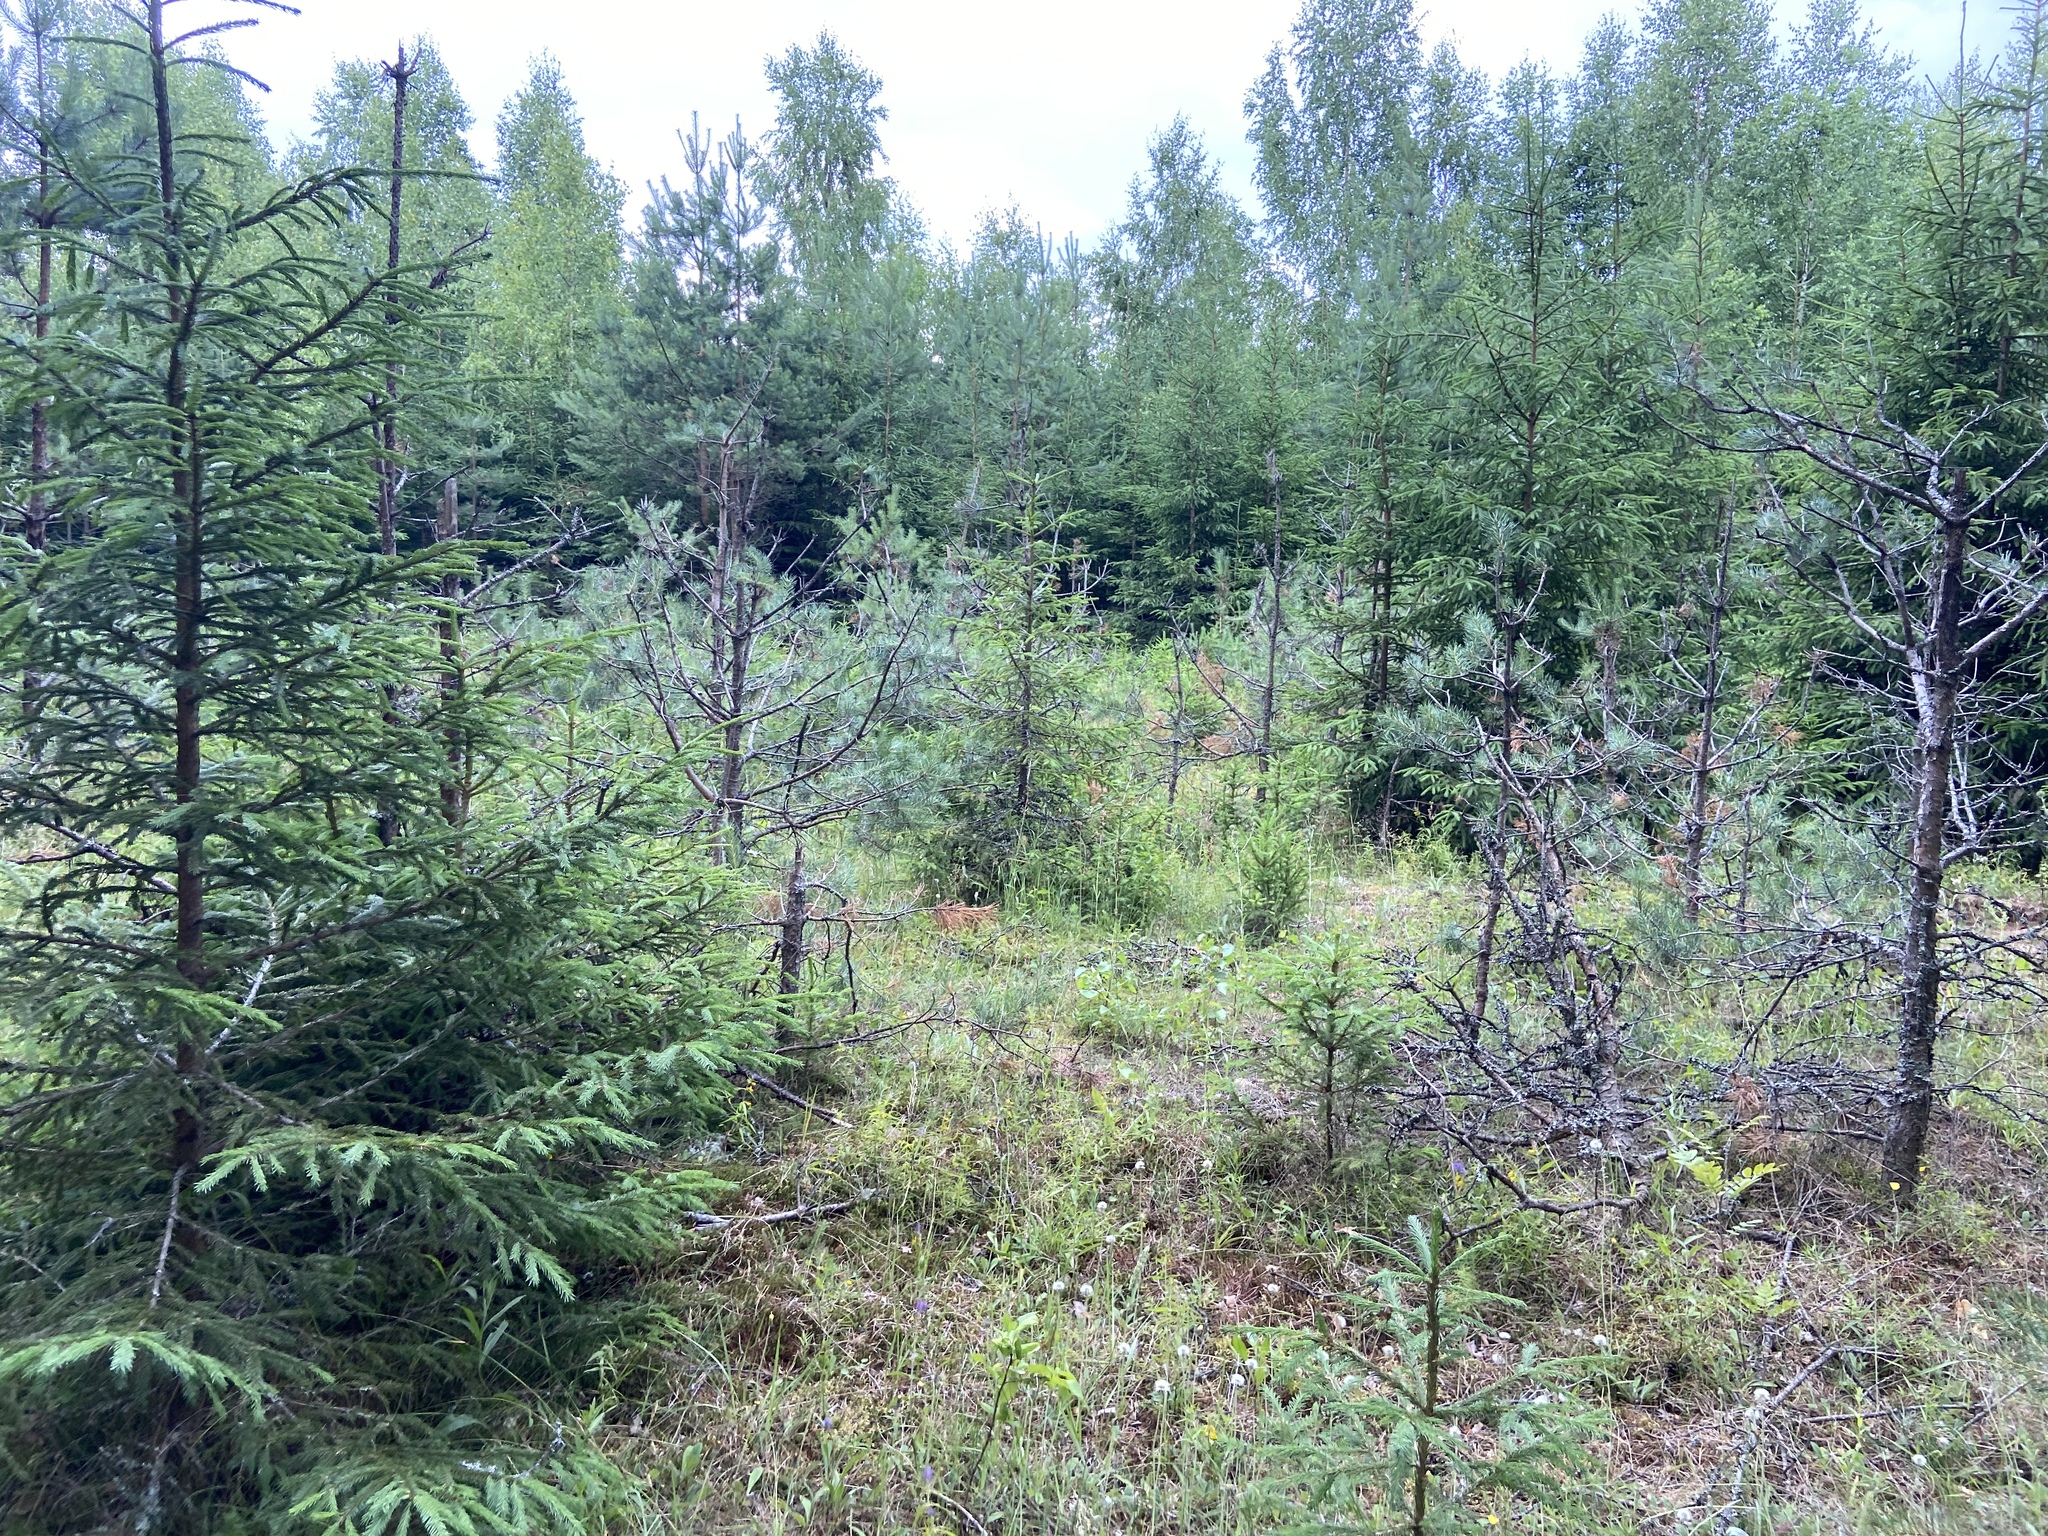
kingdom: Plantae
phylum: Tracheophyta
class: Pinopsida
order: Pinales
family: Pinaceae
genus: Picea
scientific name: Picea abies
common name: Norway spruce
